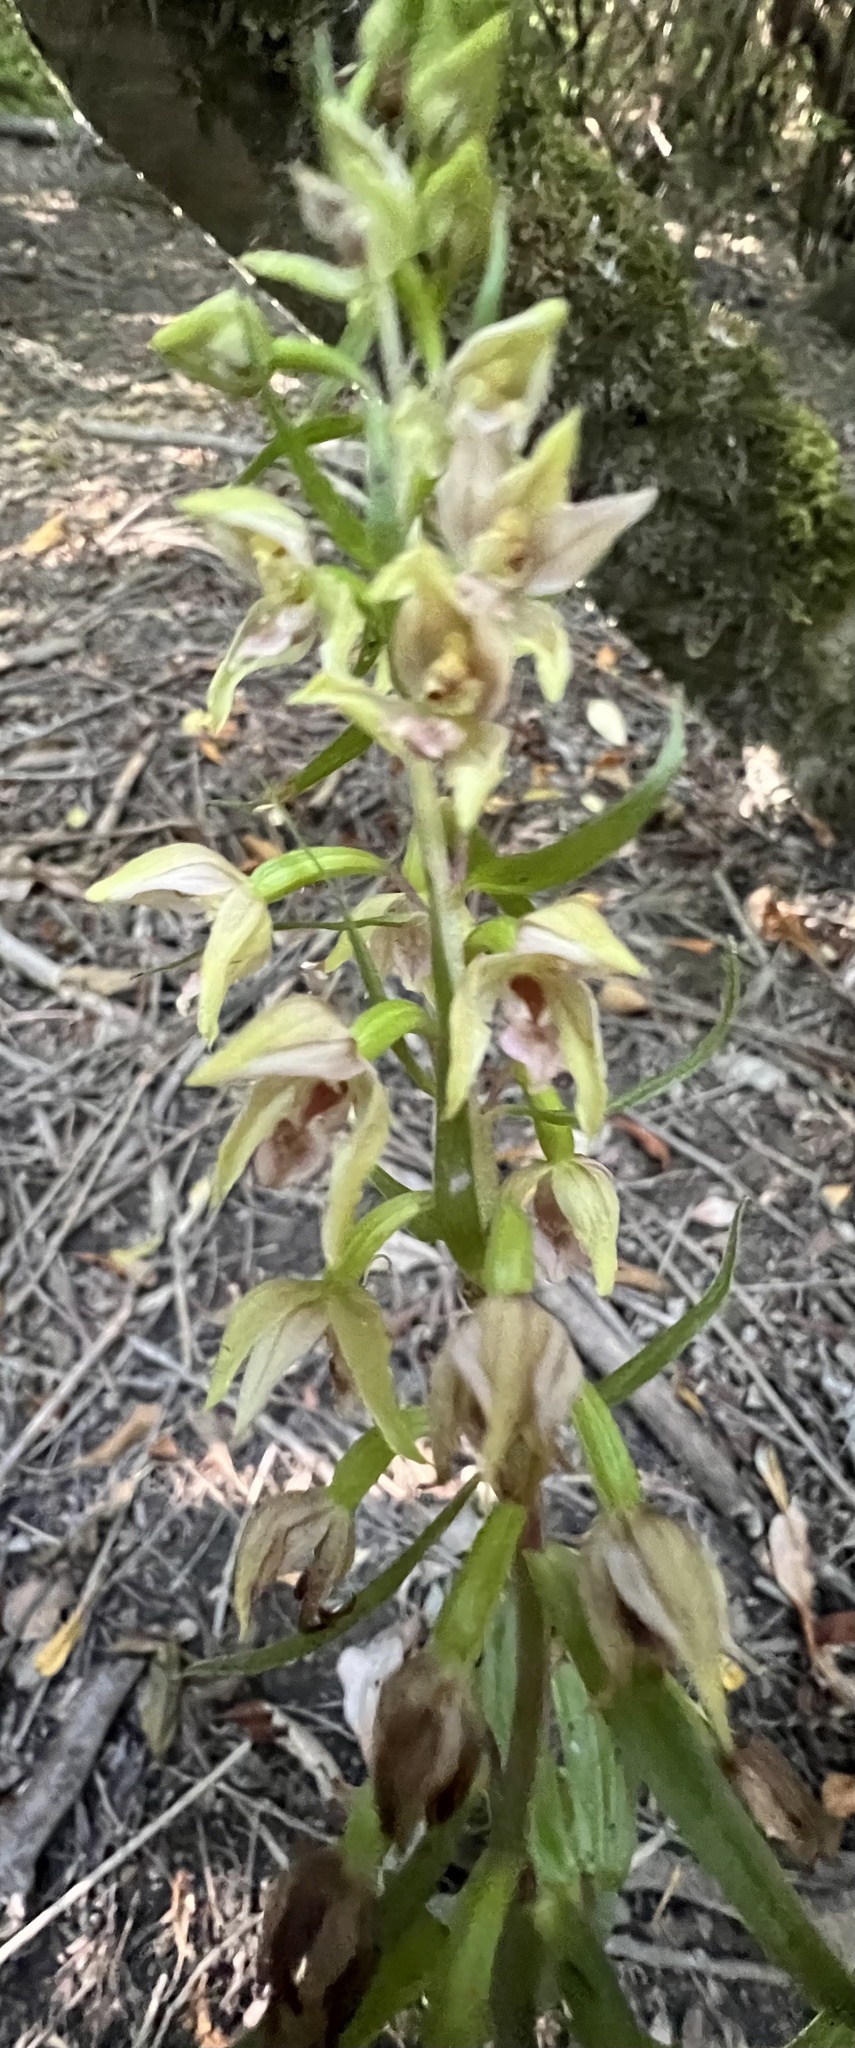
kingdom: Plantae
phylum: Tracheophyta
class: Liliopsida
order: Asparagales
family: Orchidaceae
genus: Epipactis
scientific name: Epipactis helleborine
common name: Broad-leaved helleborine
